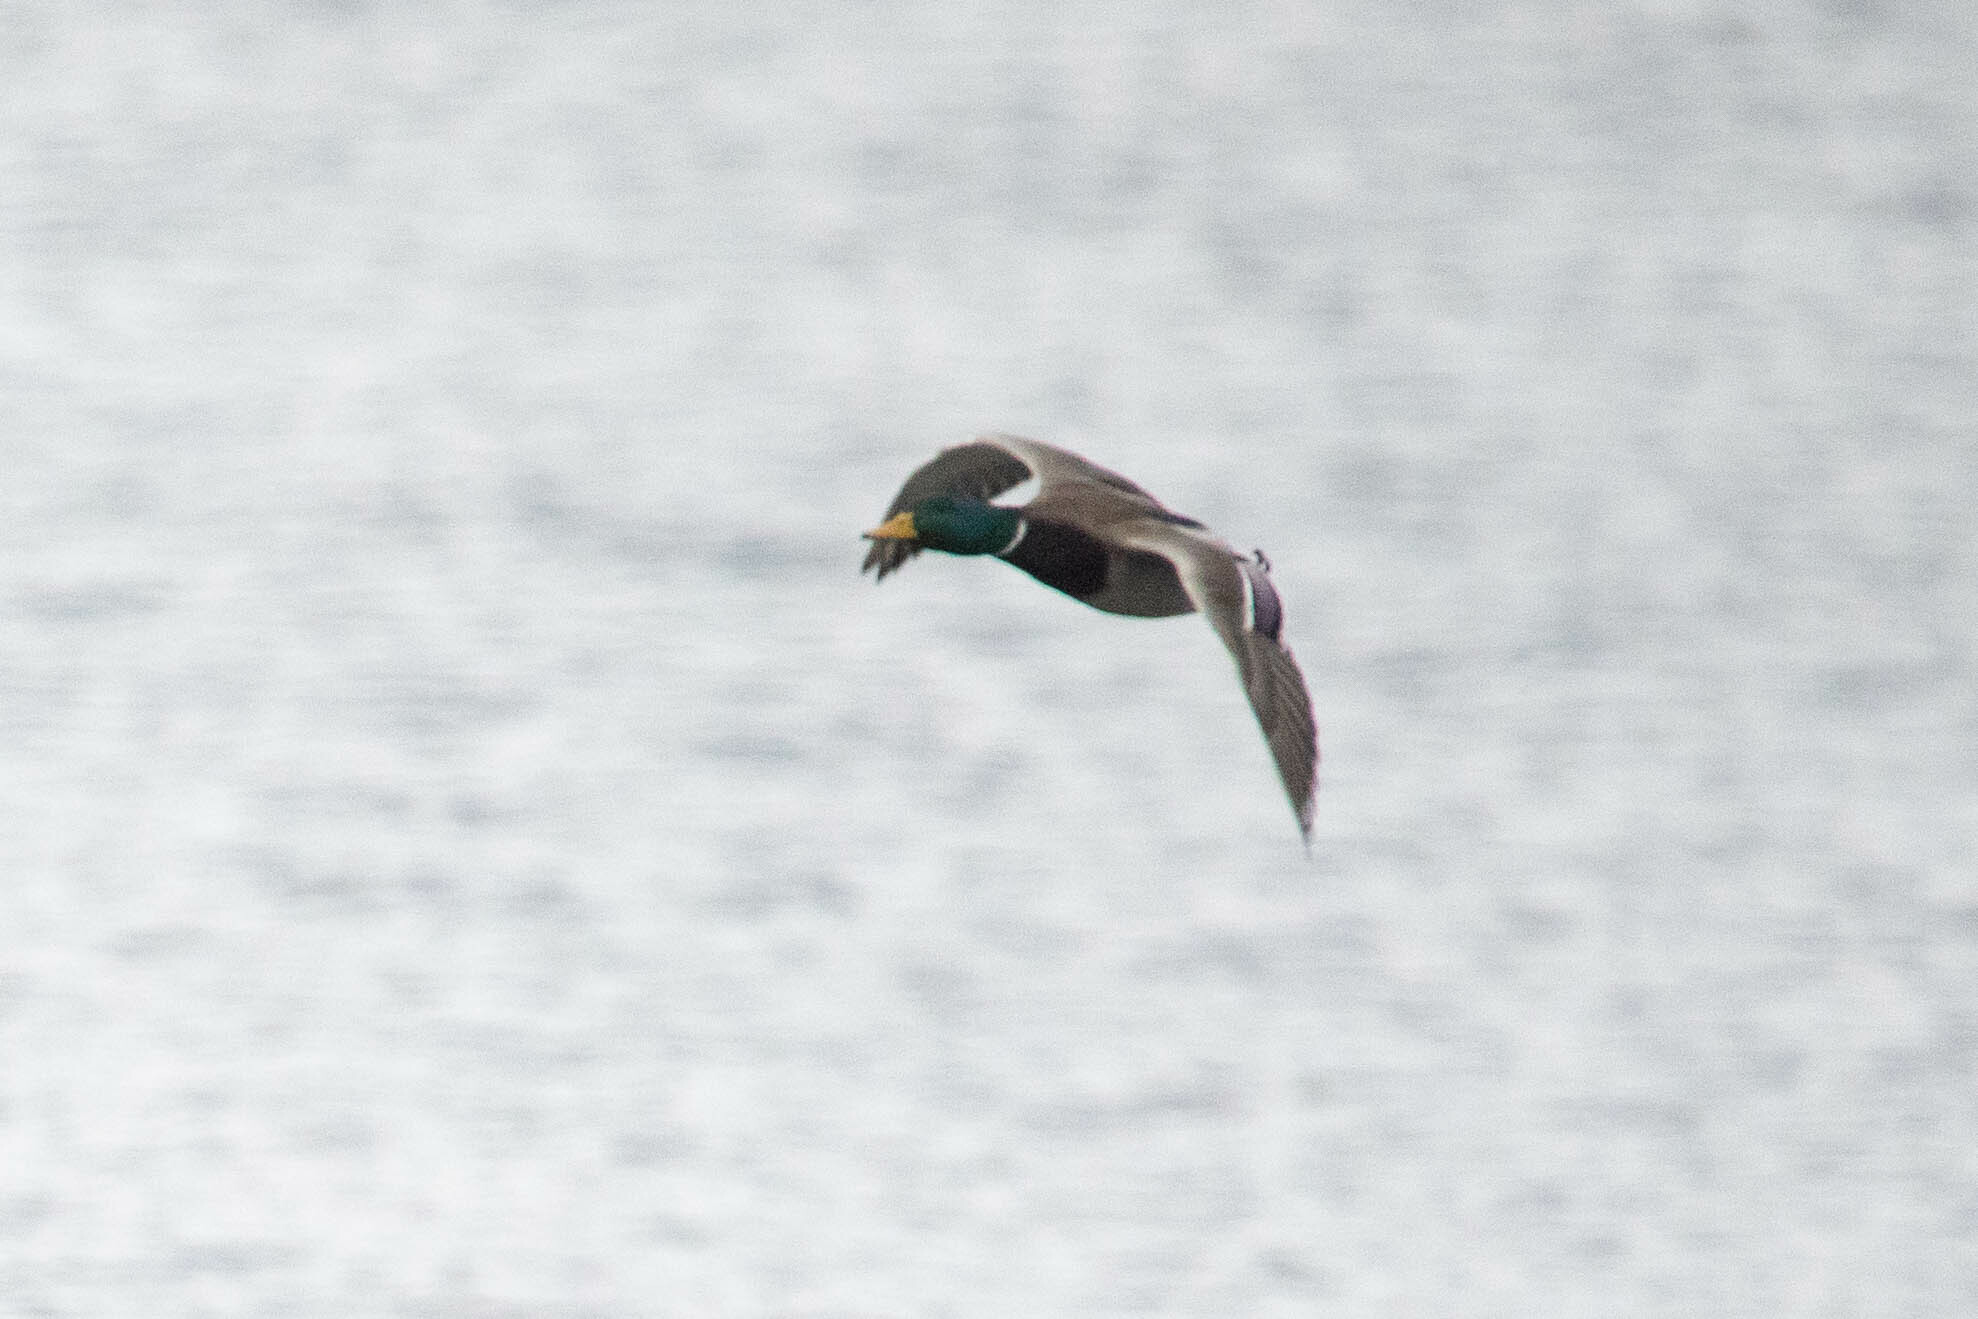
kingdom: Animalia
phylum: Chordata
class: Aves
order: Anseriformes
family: Anatidae
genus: Anas
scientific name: Anas platyrhynchos
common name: Mallard
